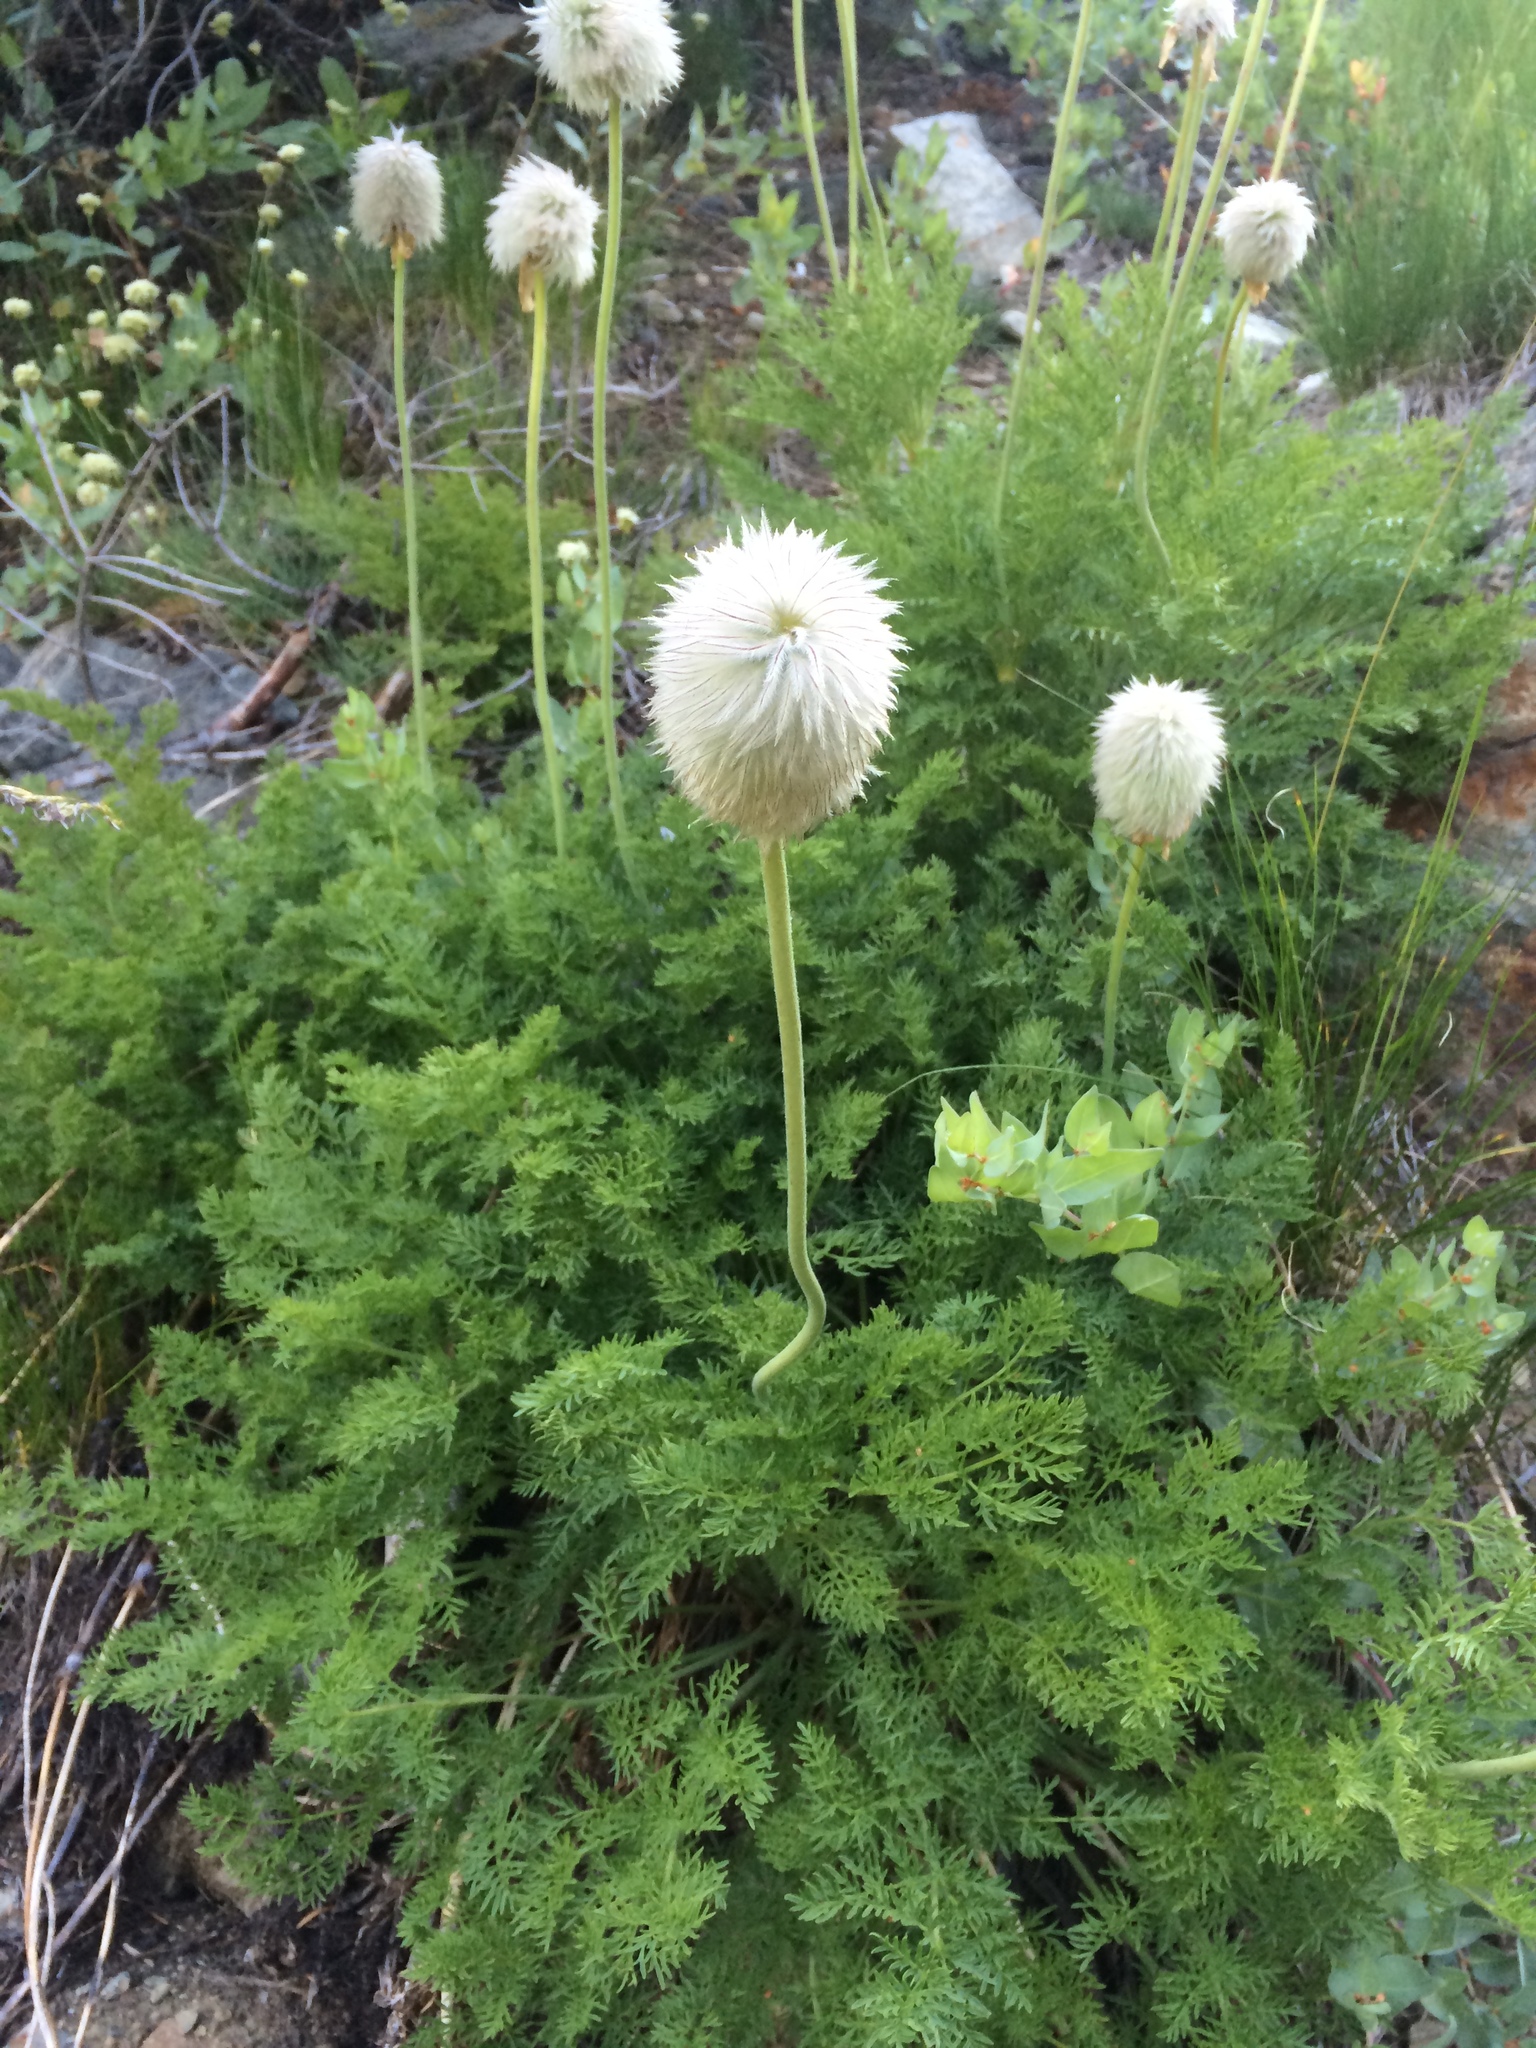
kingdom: Plantae
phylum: Tracheophyta
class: Magnoliopsida
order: Ranunculales
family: Ranunculaceae
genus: Pulsatilla
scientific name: Pulsatilla occidentalis
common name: Mountain pasqueflower
